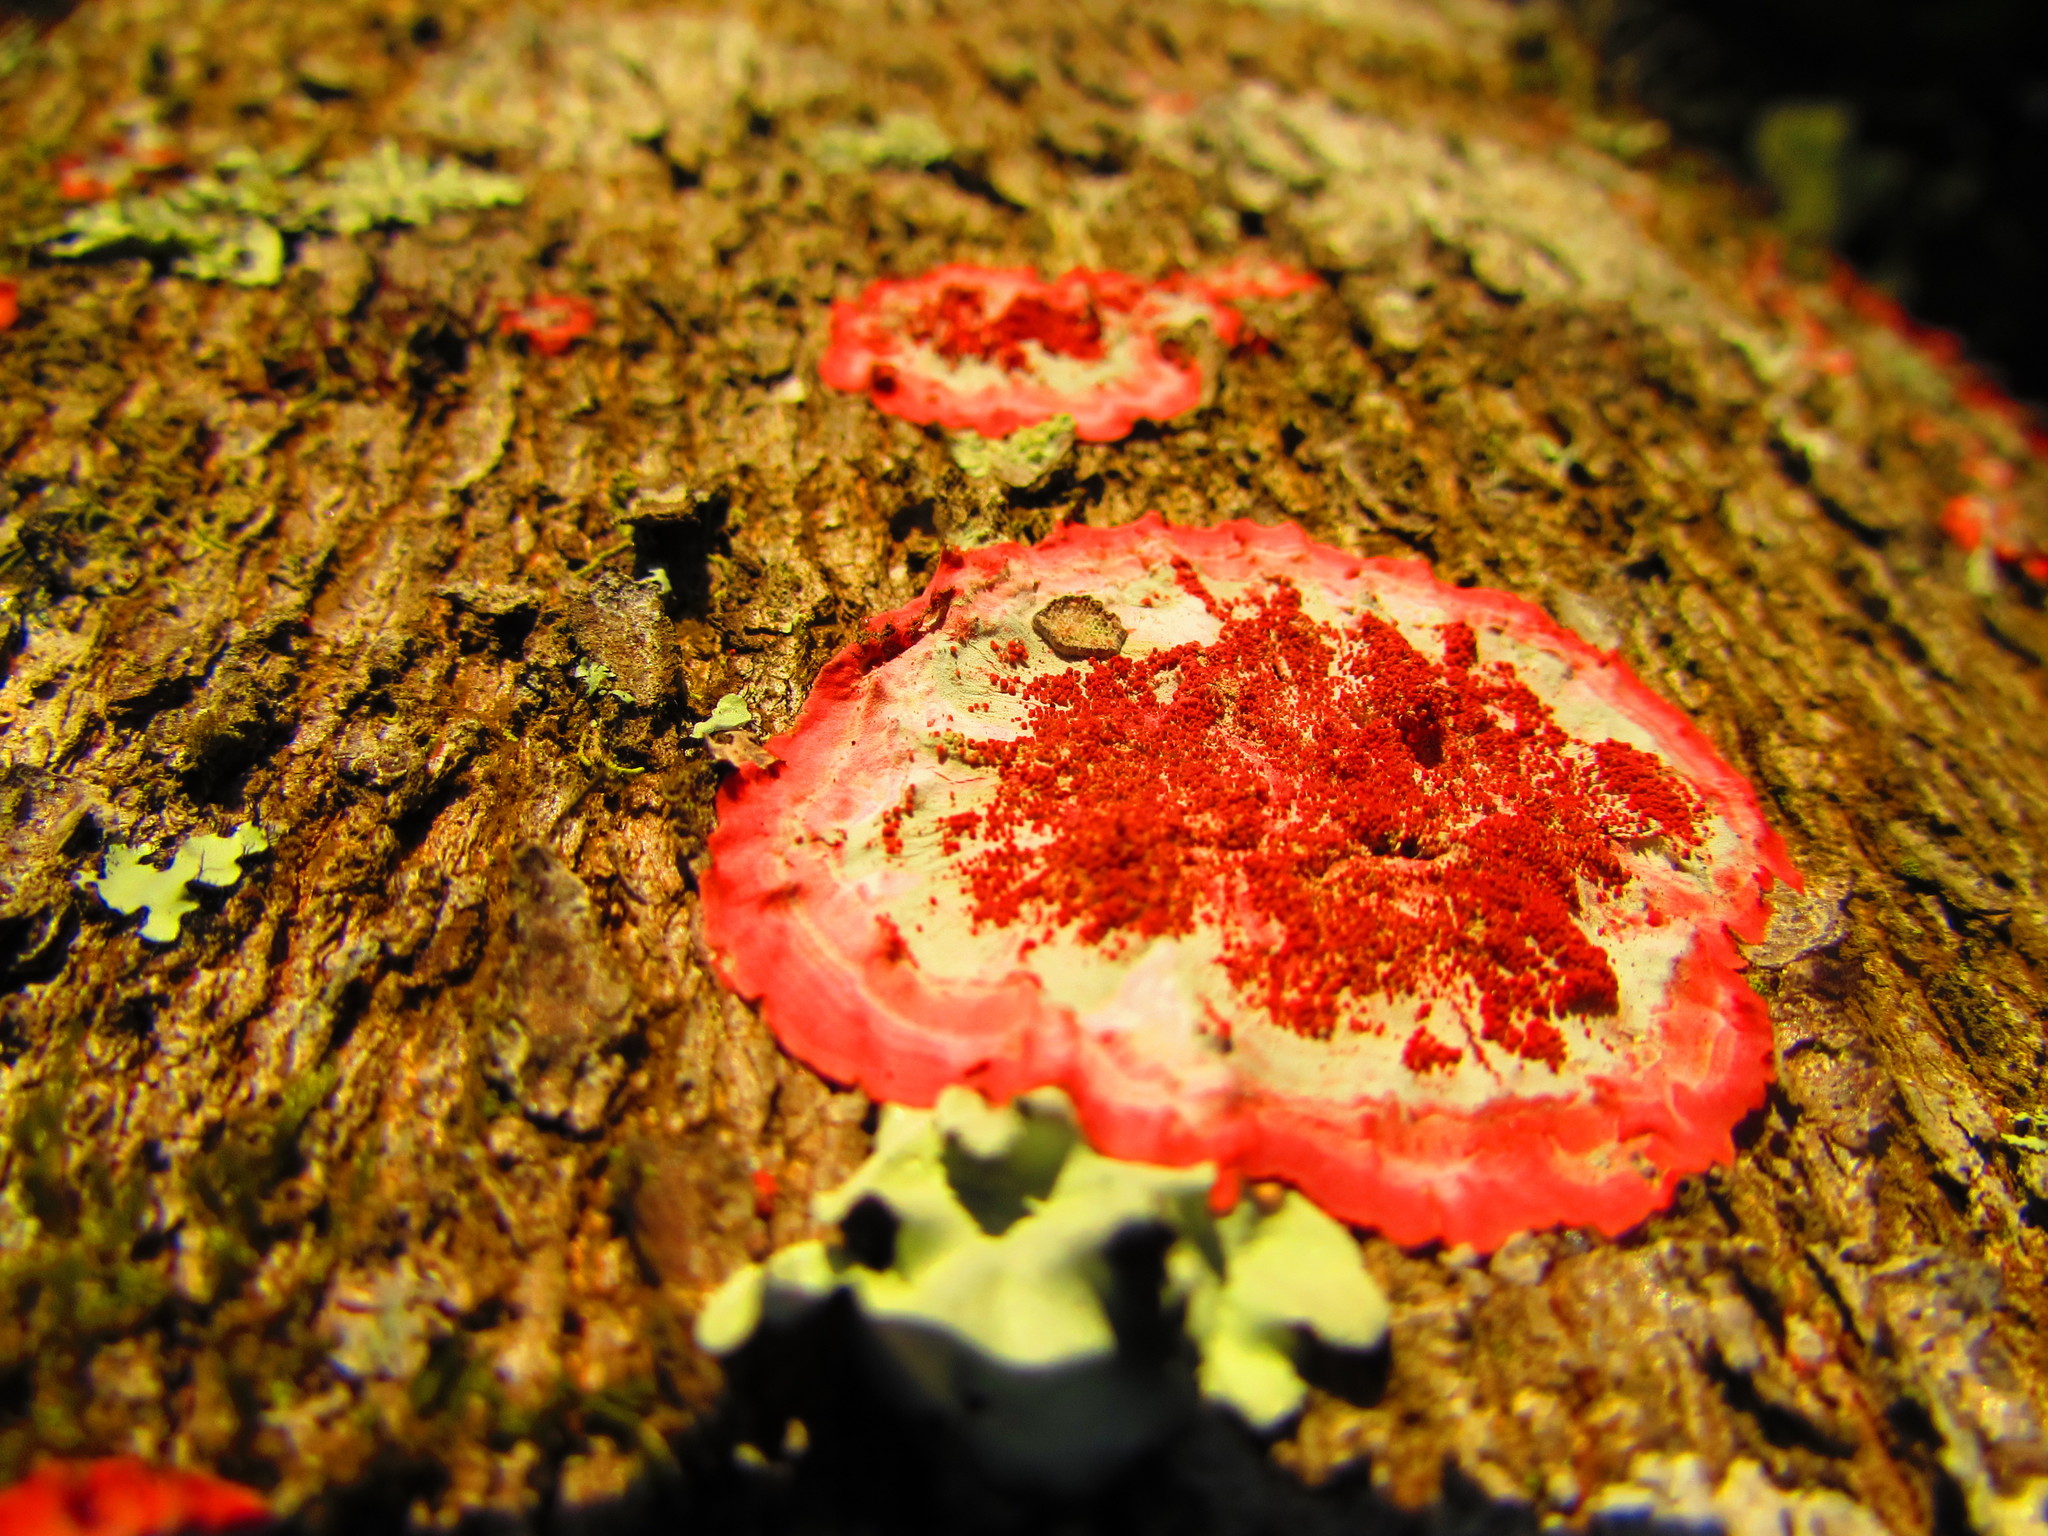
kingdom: Fungi
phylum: Ascomycota
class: Arthoniomycetes
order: Arthoniales
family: Arthoniaceae
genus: Herpothallon
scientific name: Herpothallon rubrocinctum
